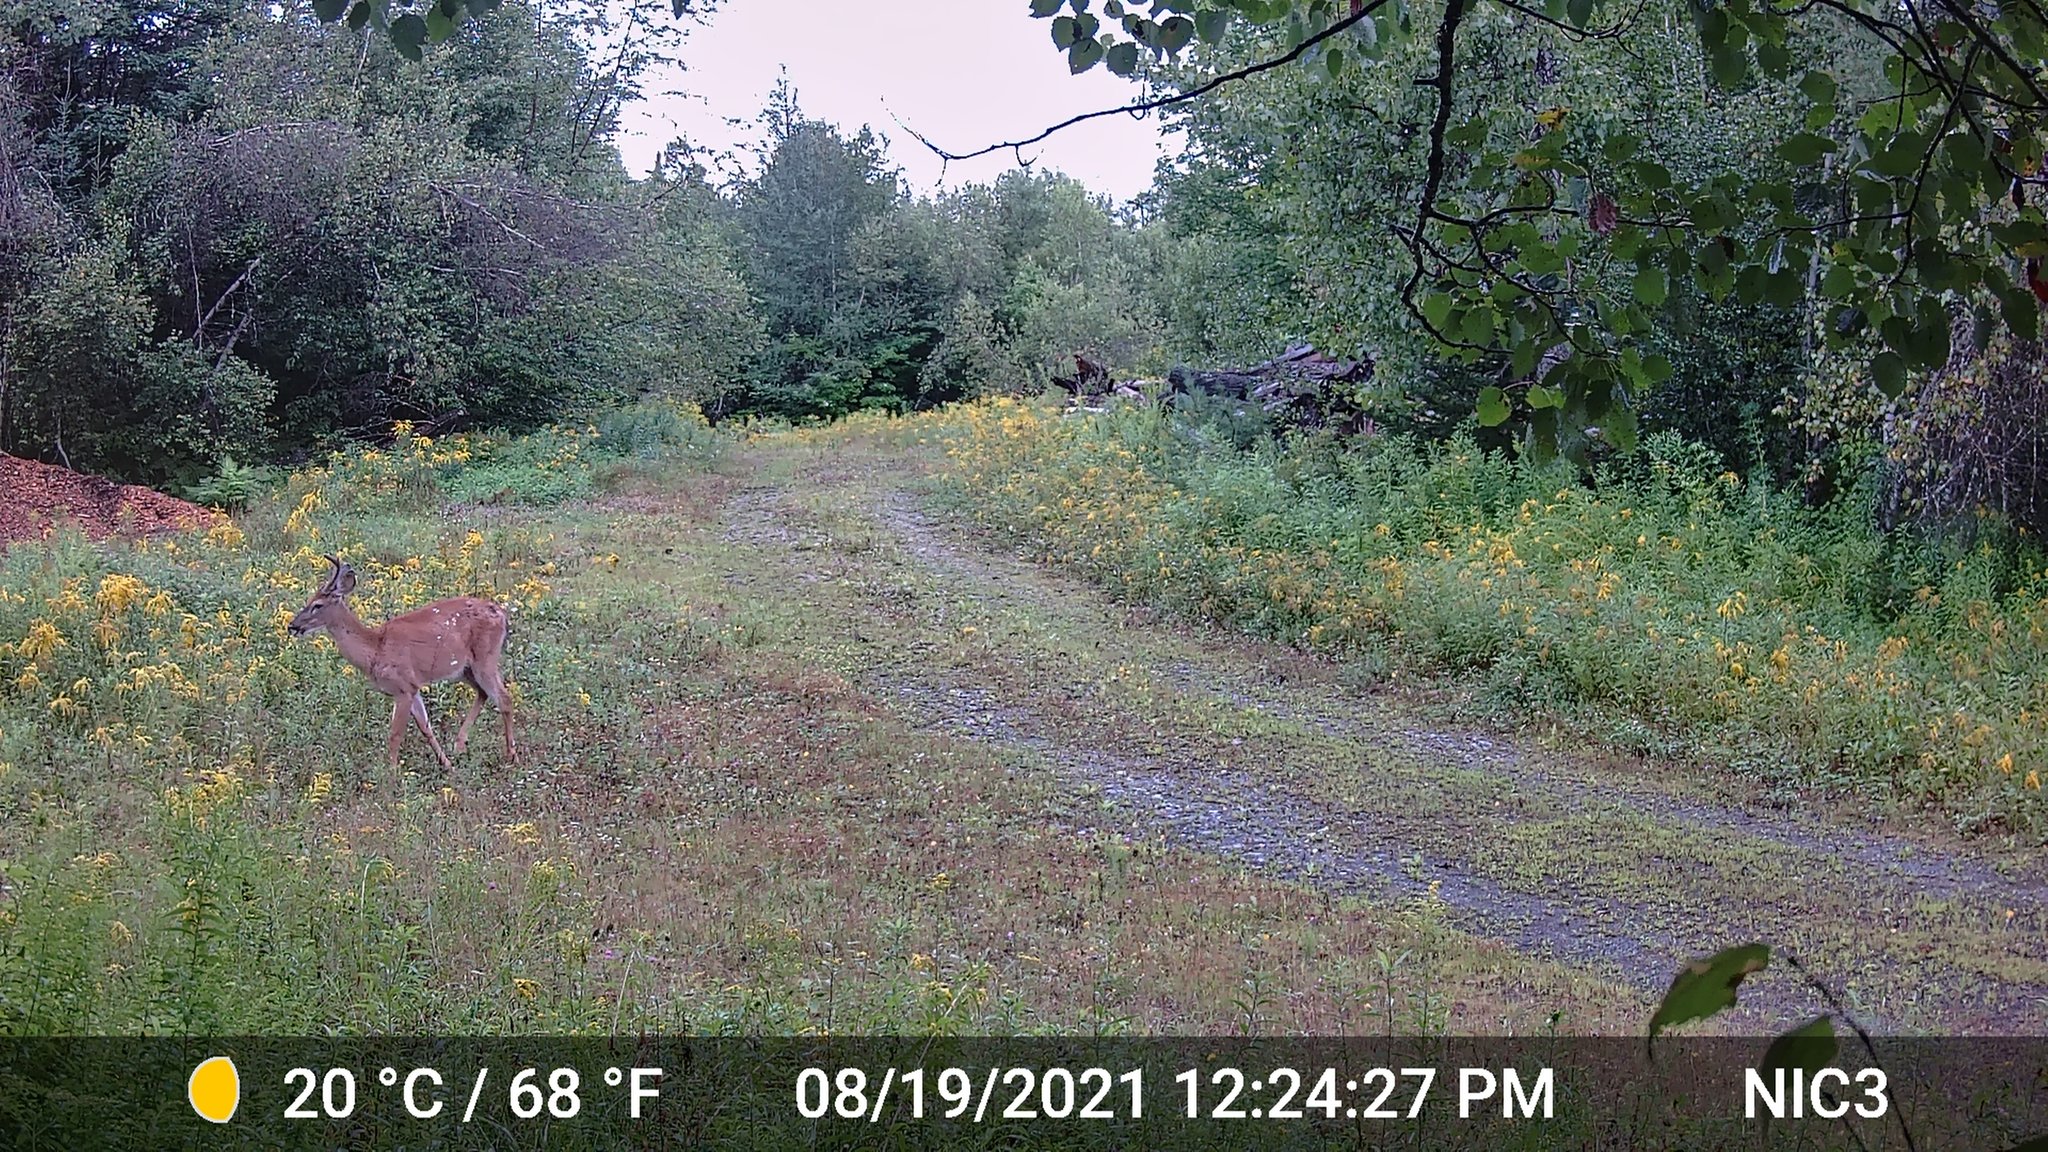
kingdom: Animalia
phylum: Chordata
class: Mammalia
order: Artiodactyla
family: Cervidae
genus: Odocoileus
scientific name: Odocoileus virginianus
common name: White-tailed deer
